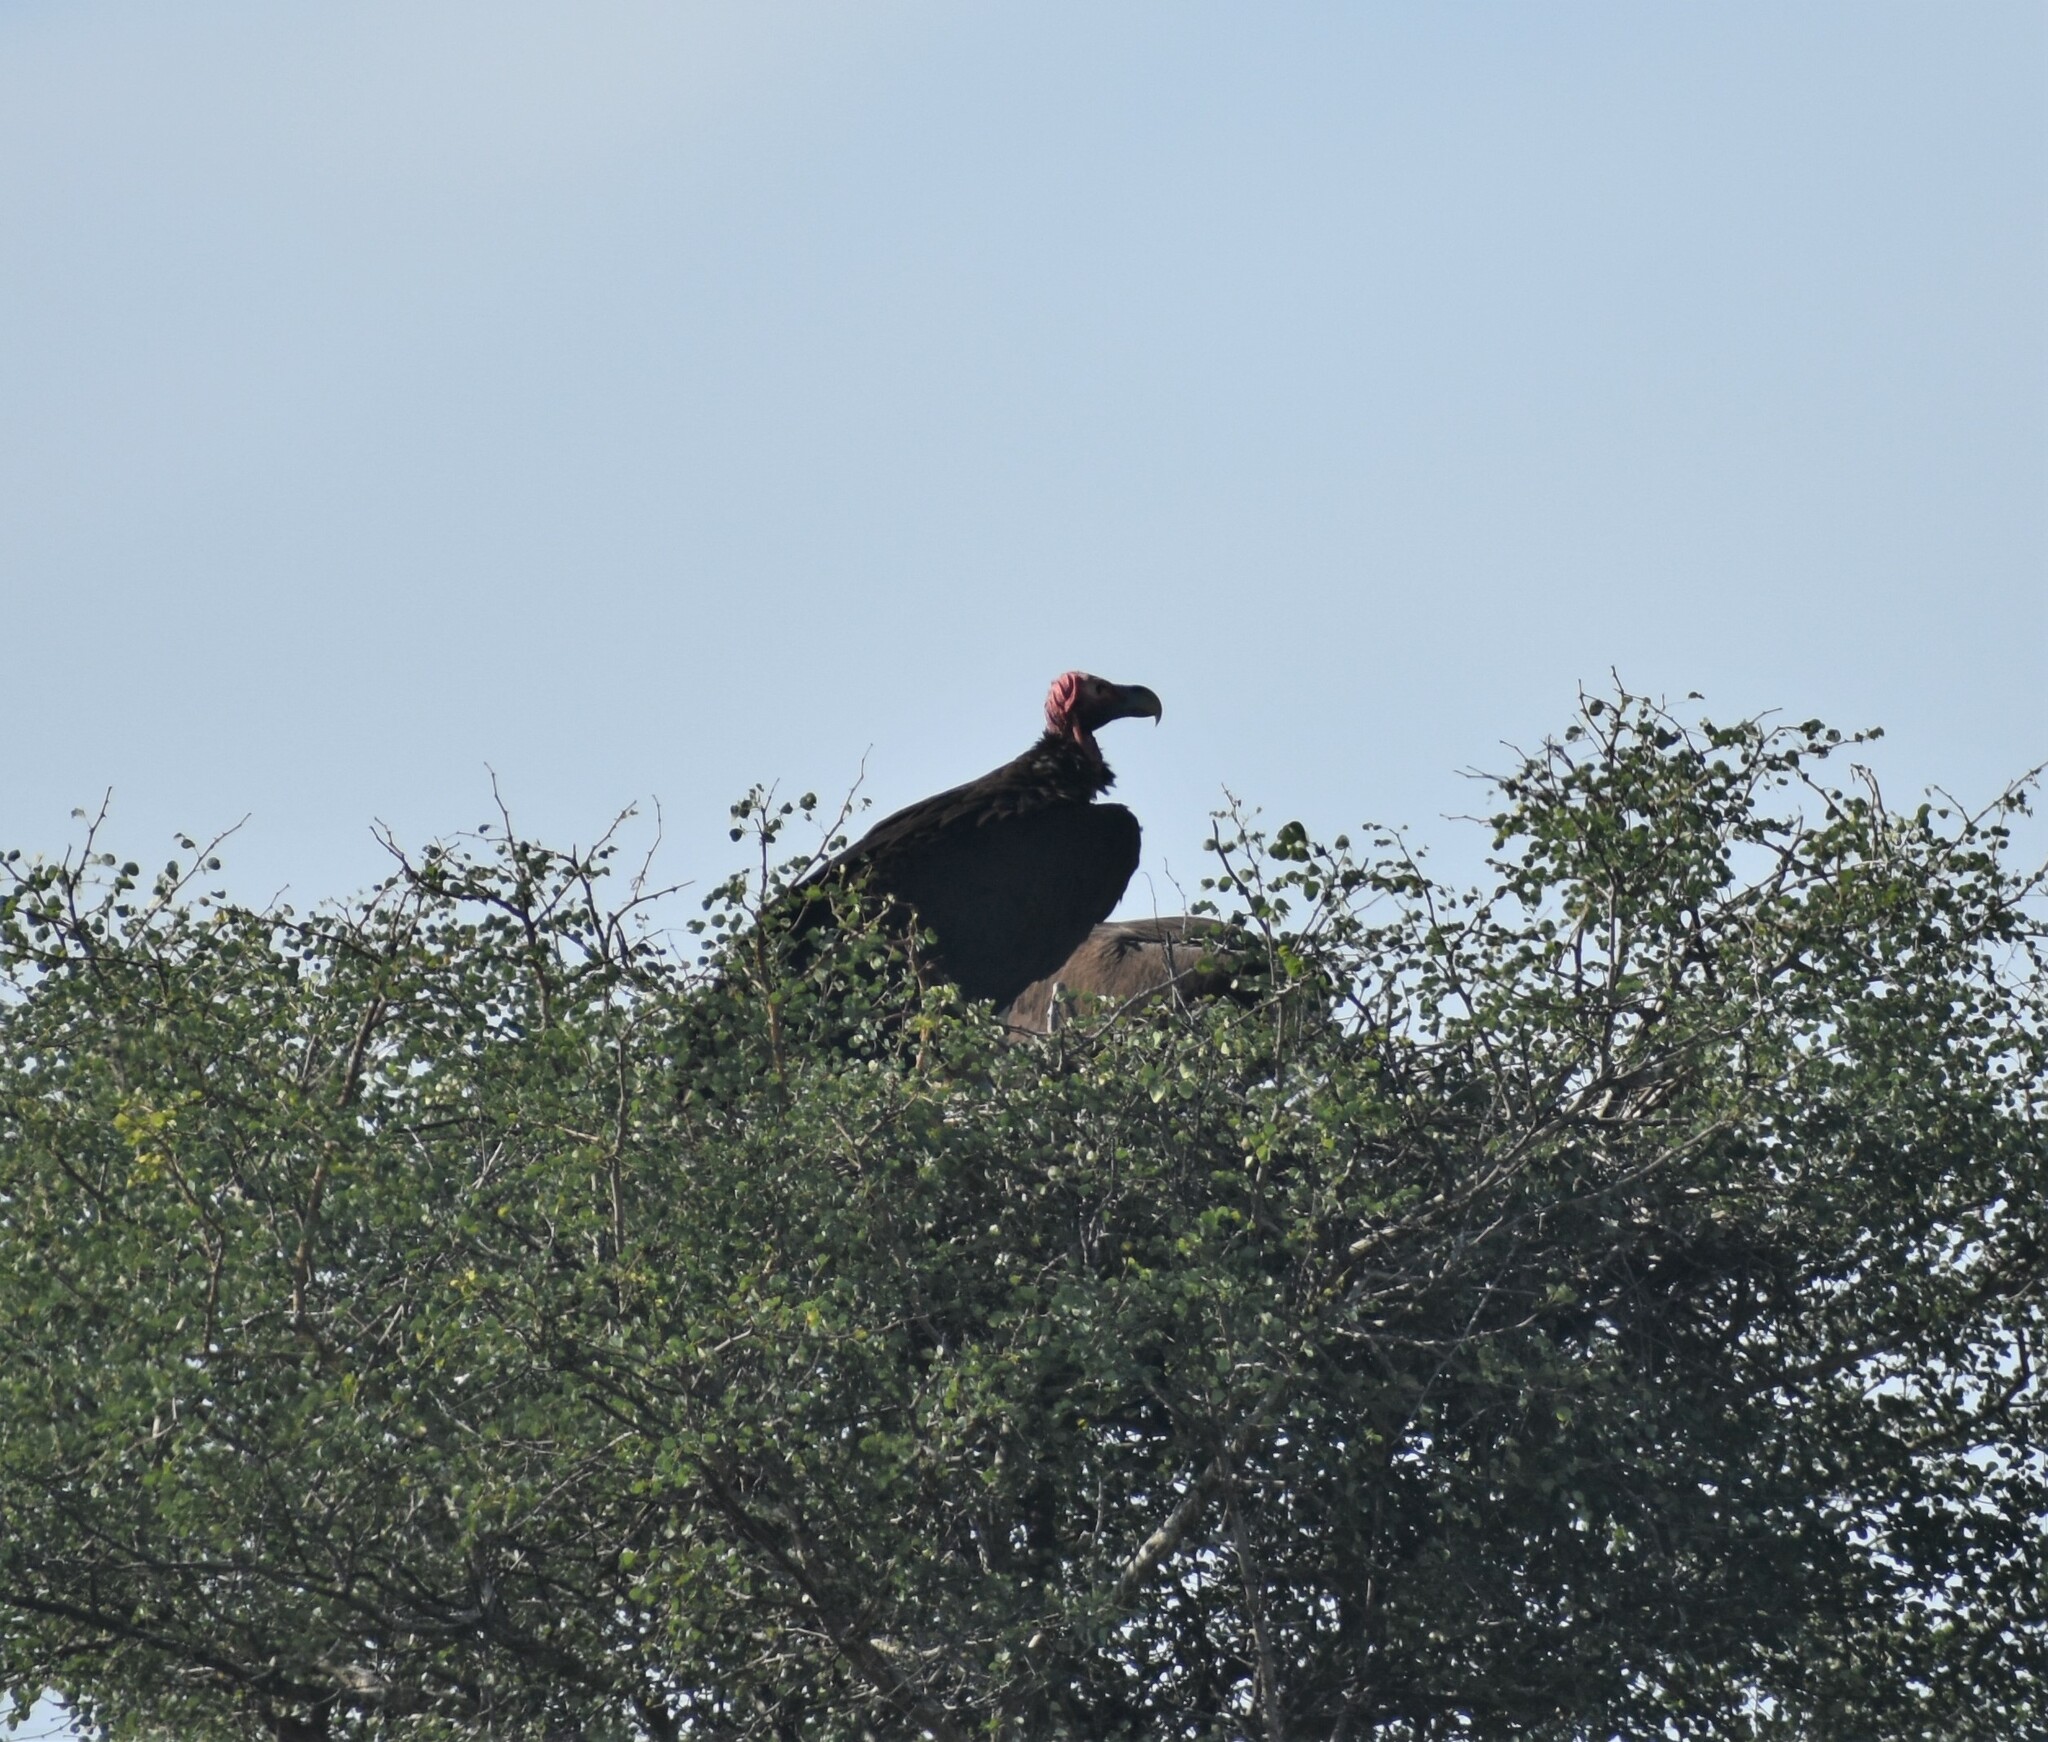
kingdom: Animalia
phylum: Chordata
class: Aves
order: Accipitriformes
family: Accipitridae
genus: Torgos
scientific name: Torgos tracheliotos
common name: Lappet-faced vulture
